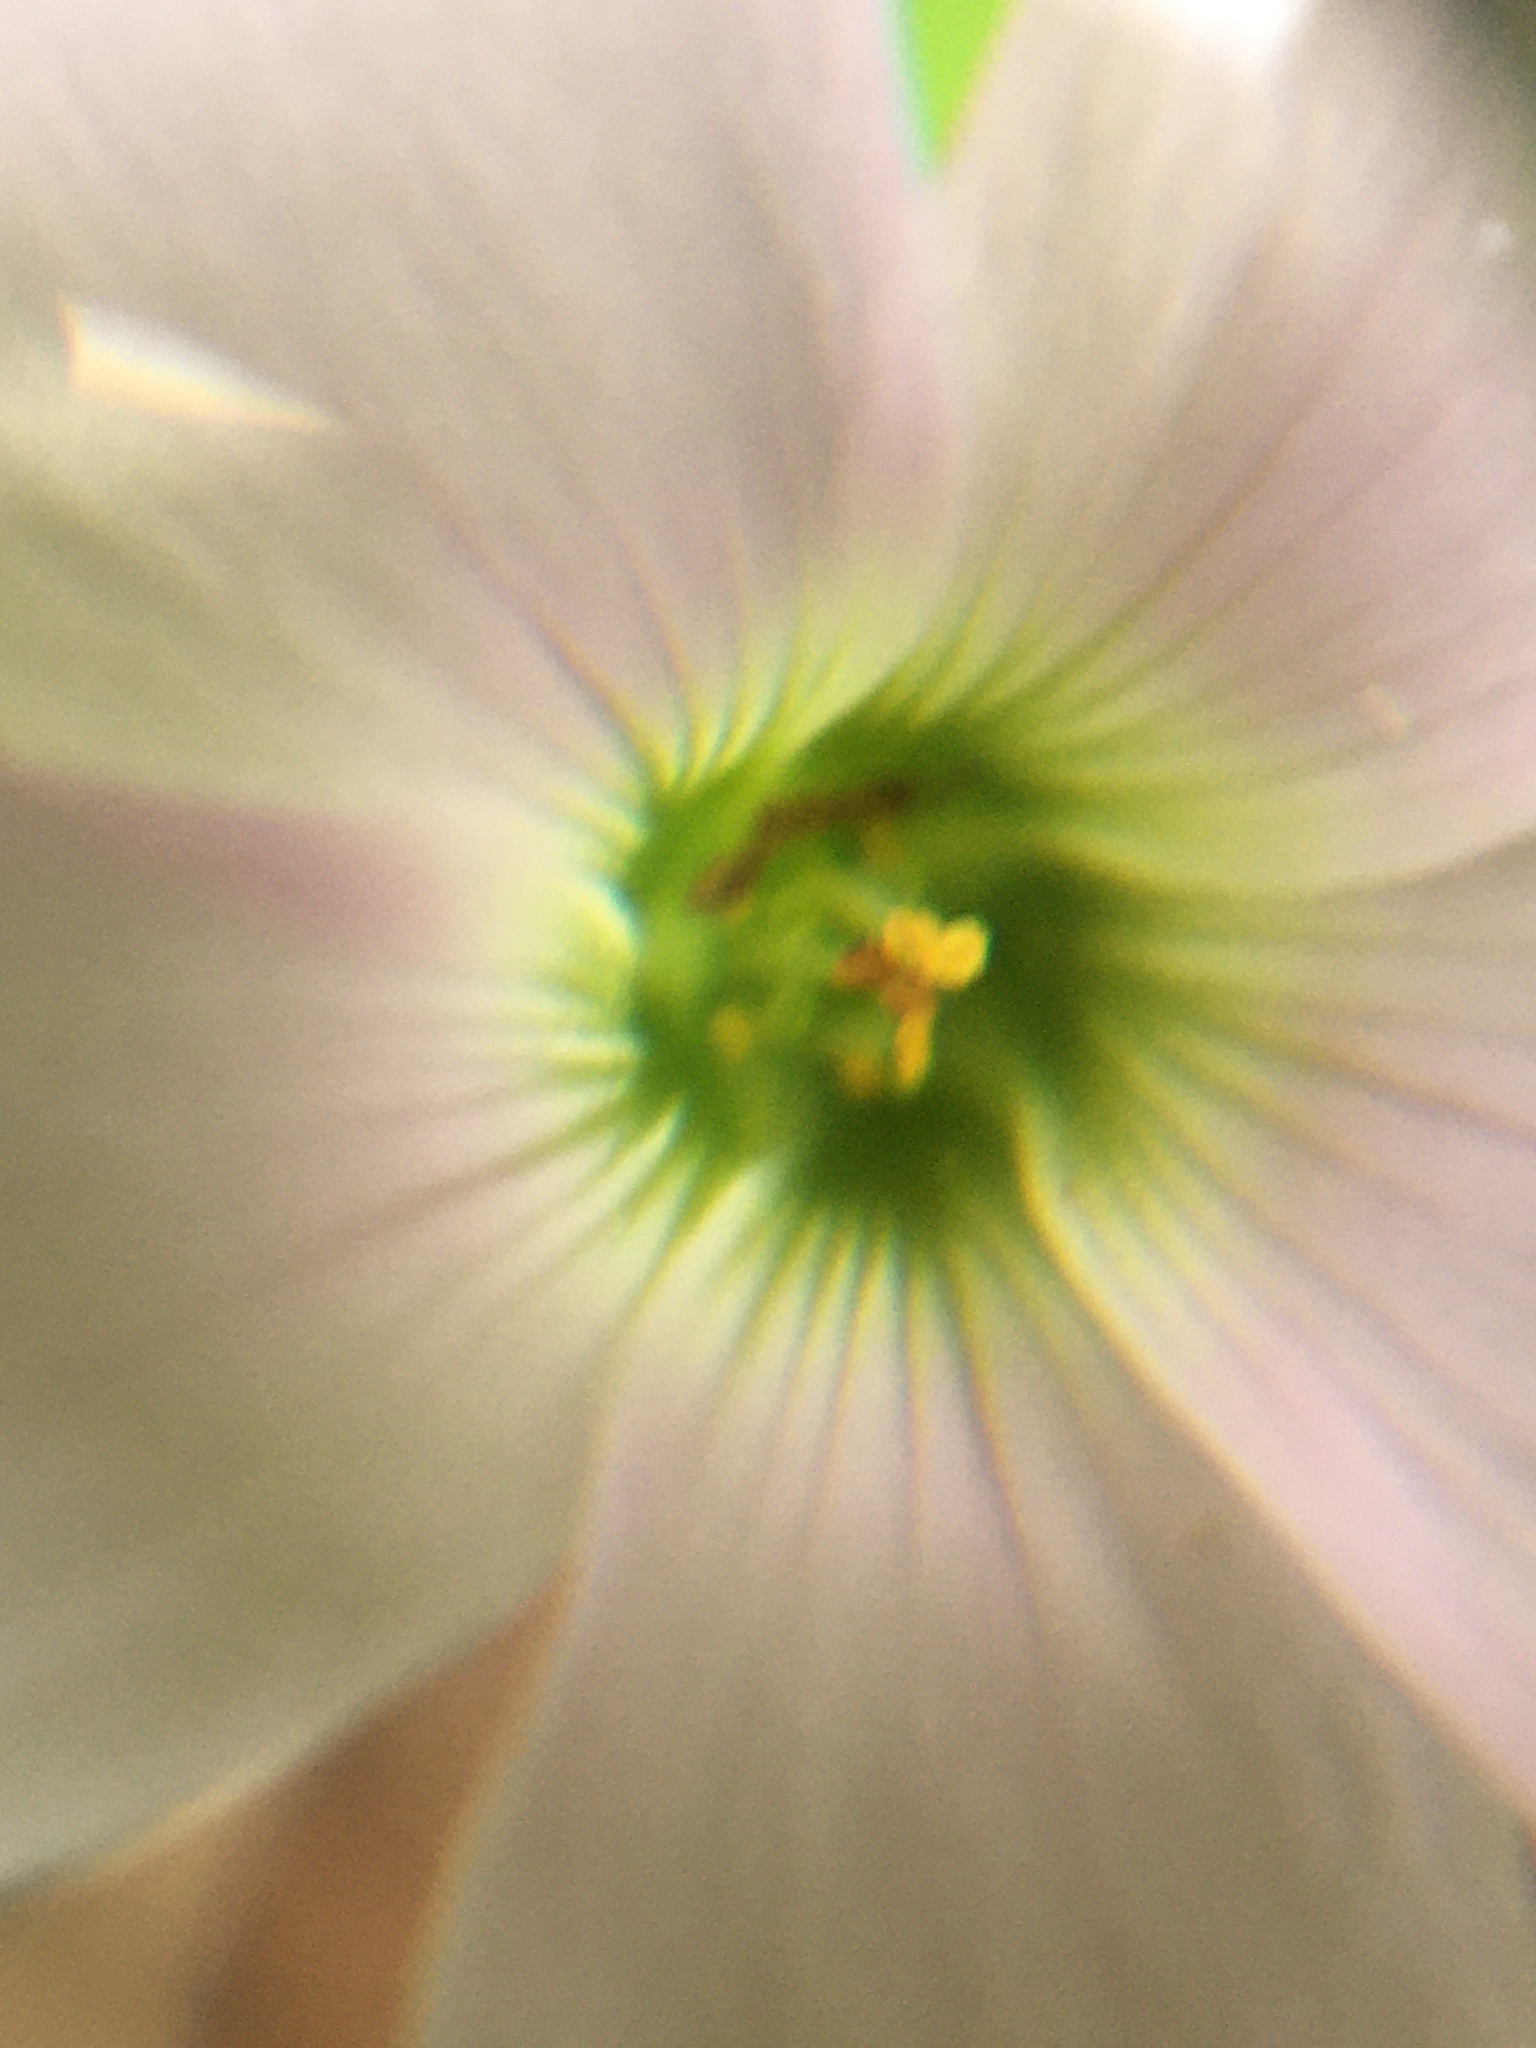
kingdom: Plantae
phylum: Tracheophyta
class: Magnoliopsida
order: Oxalidales
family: Oxalidaceae
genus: Oxalis
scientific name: Oxalis incarnata
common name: Pale pink-sorrel
